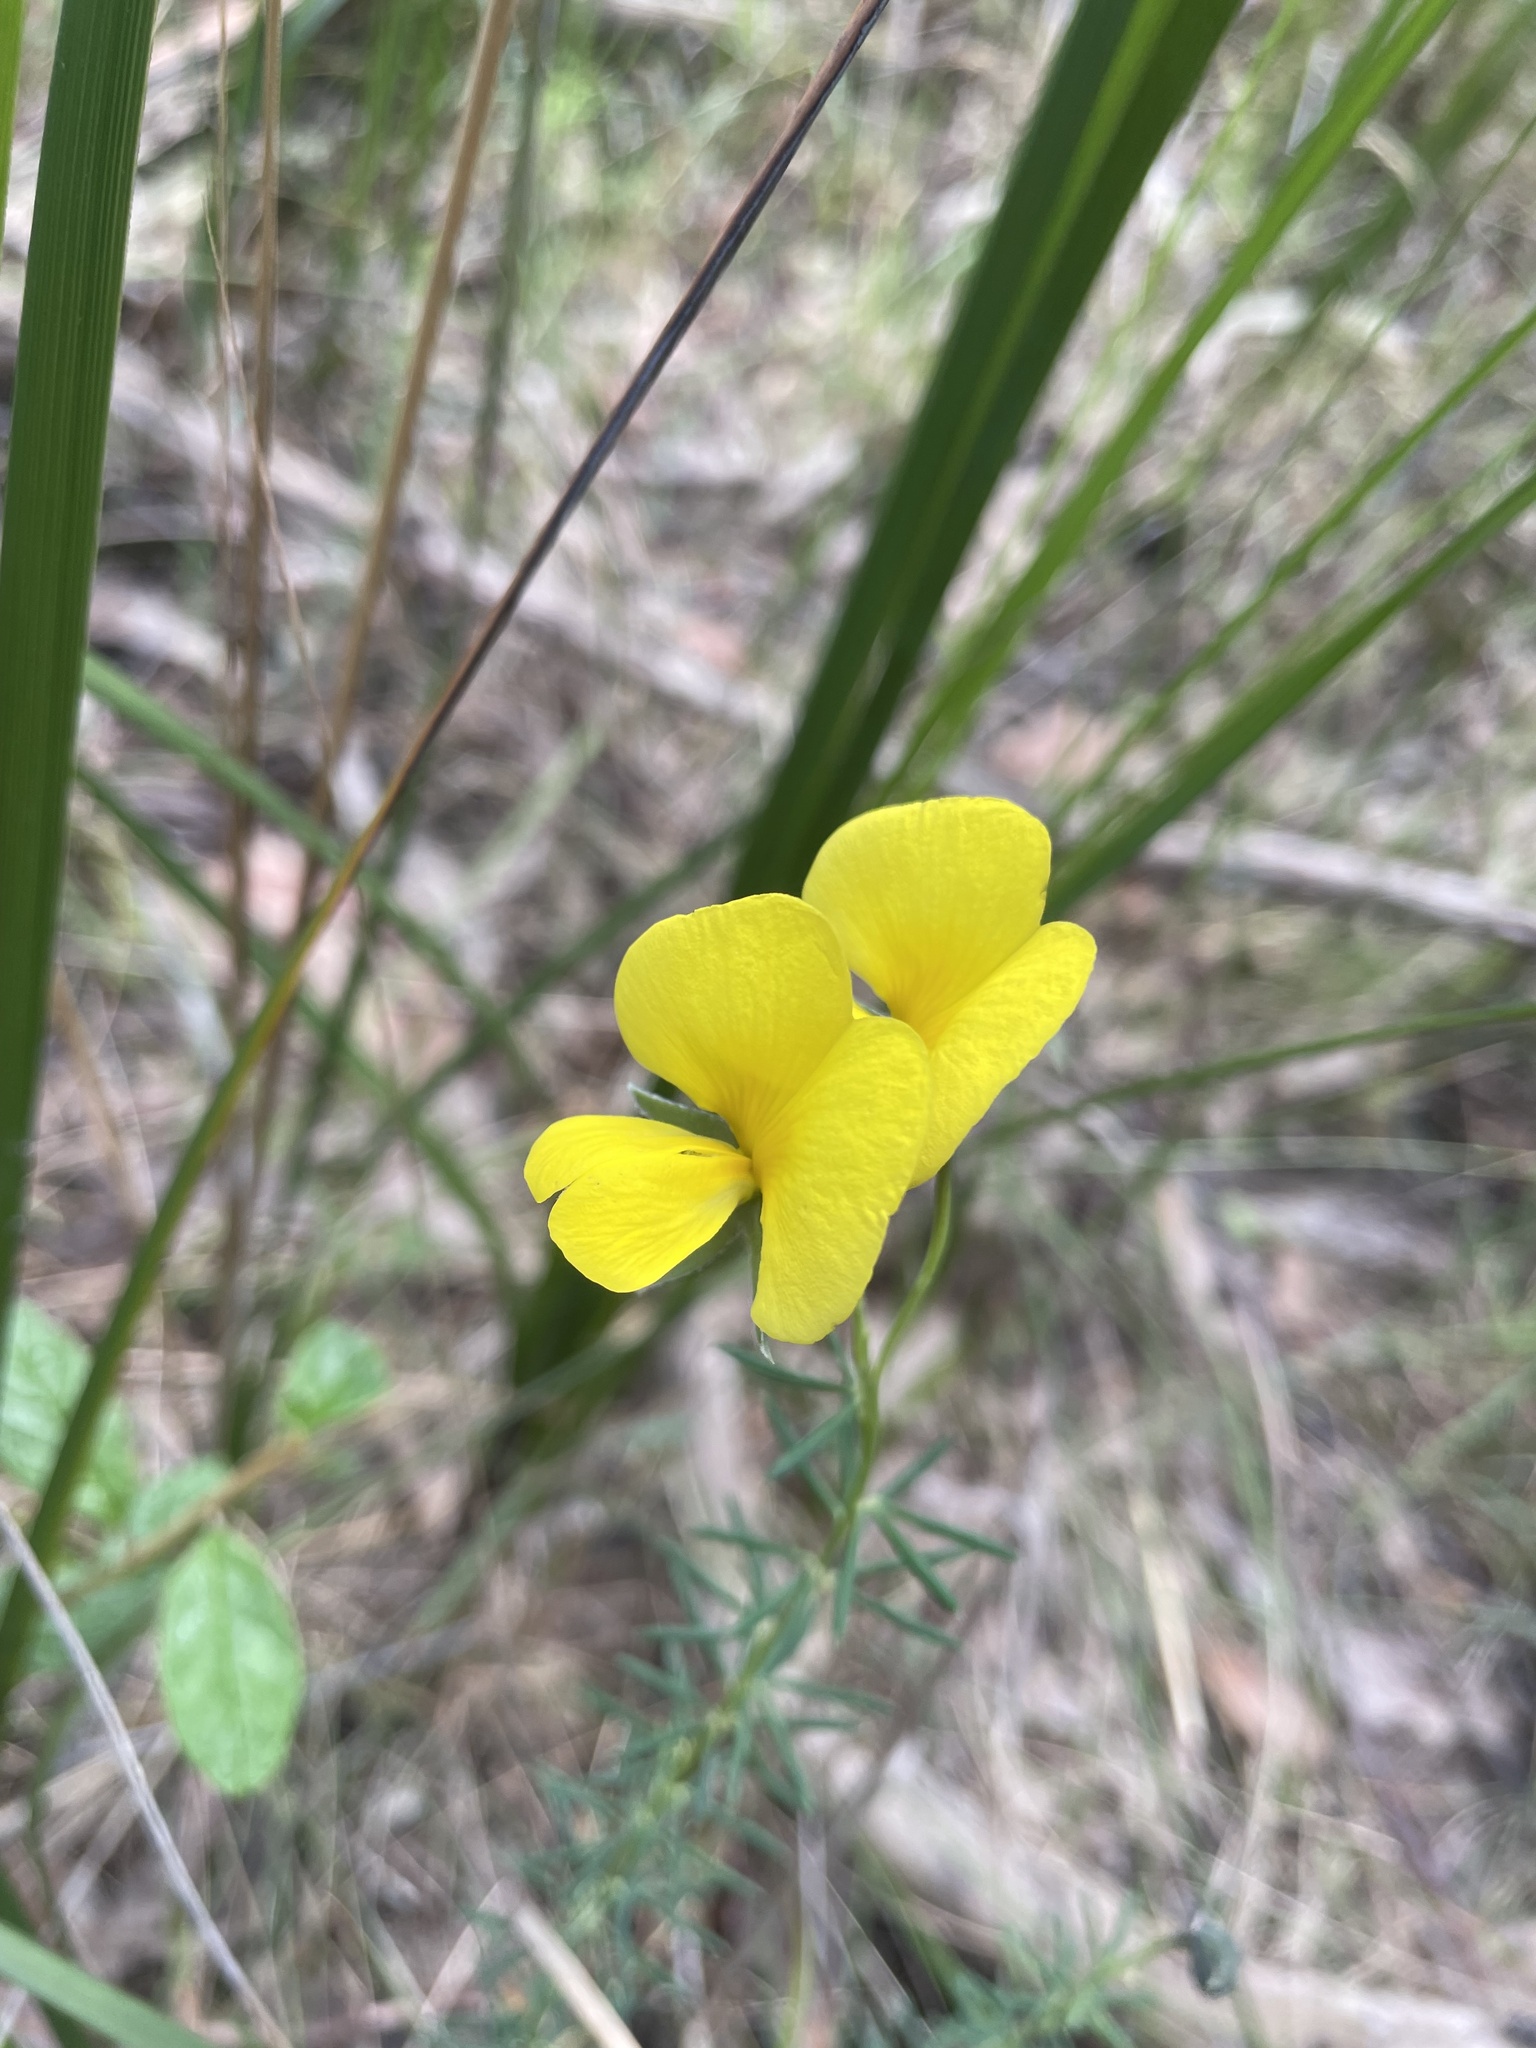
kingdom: Plantae
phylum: Tracheophyta
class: Magnoliopsida
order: Fabales
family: Fabaceae
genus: Gompholobium
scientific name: Gompholobium huegelii
